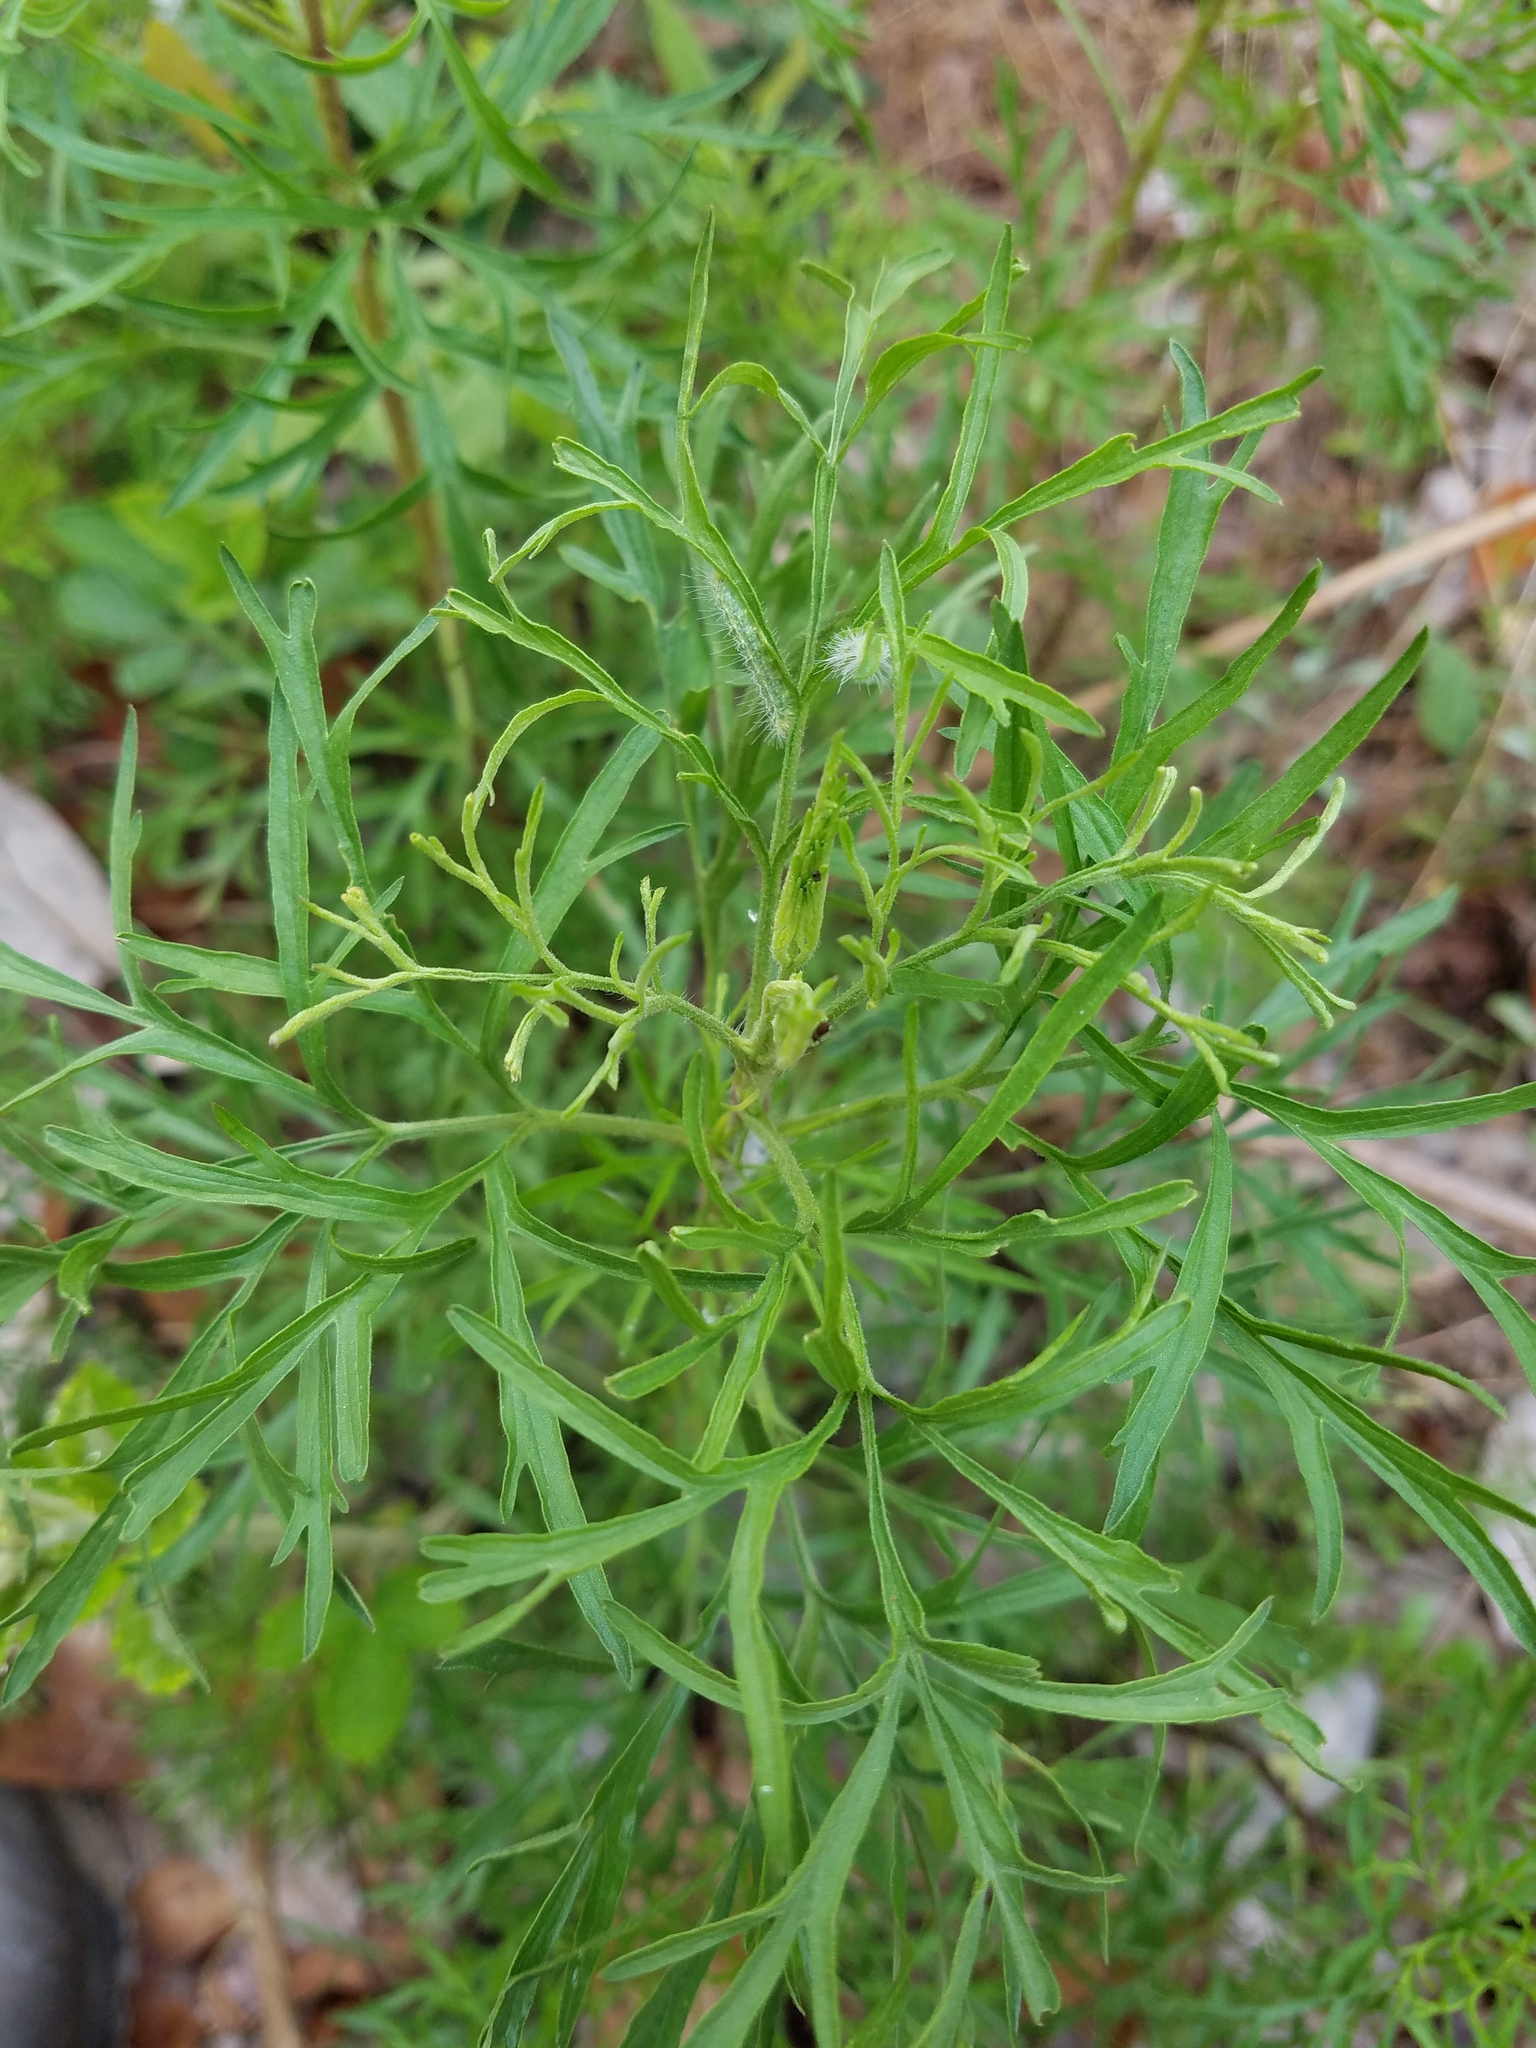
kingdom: Plantae
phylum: Tracheophyta
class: Magnoliopsida
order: Asterales
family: Asteraceae
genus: Eupatorium
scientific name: Eupatorium compositifolium
